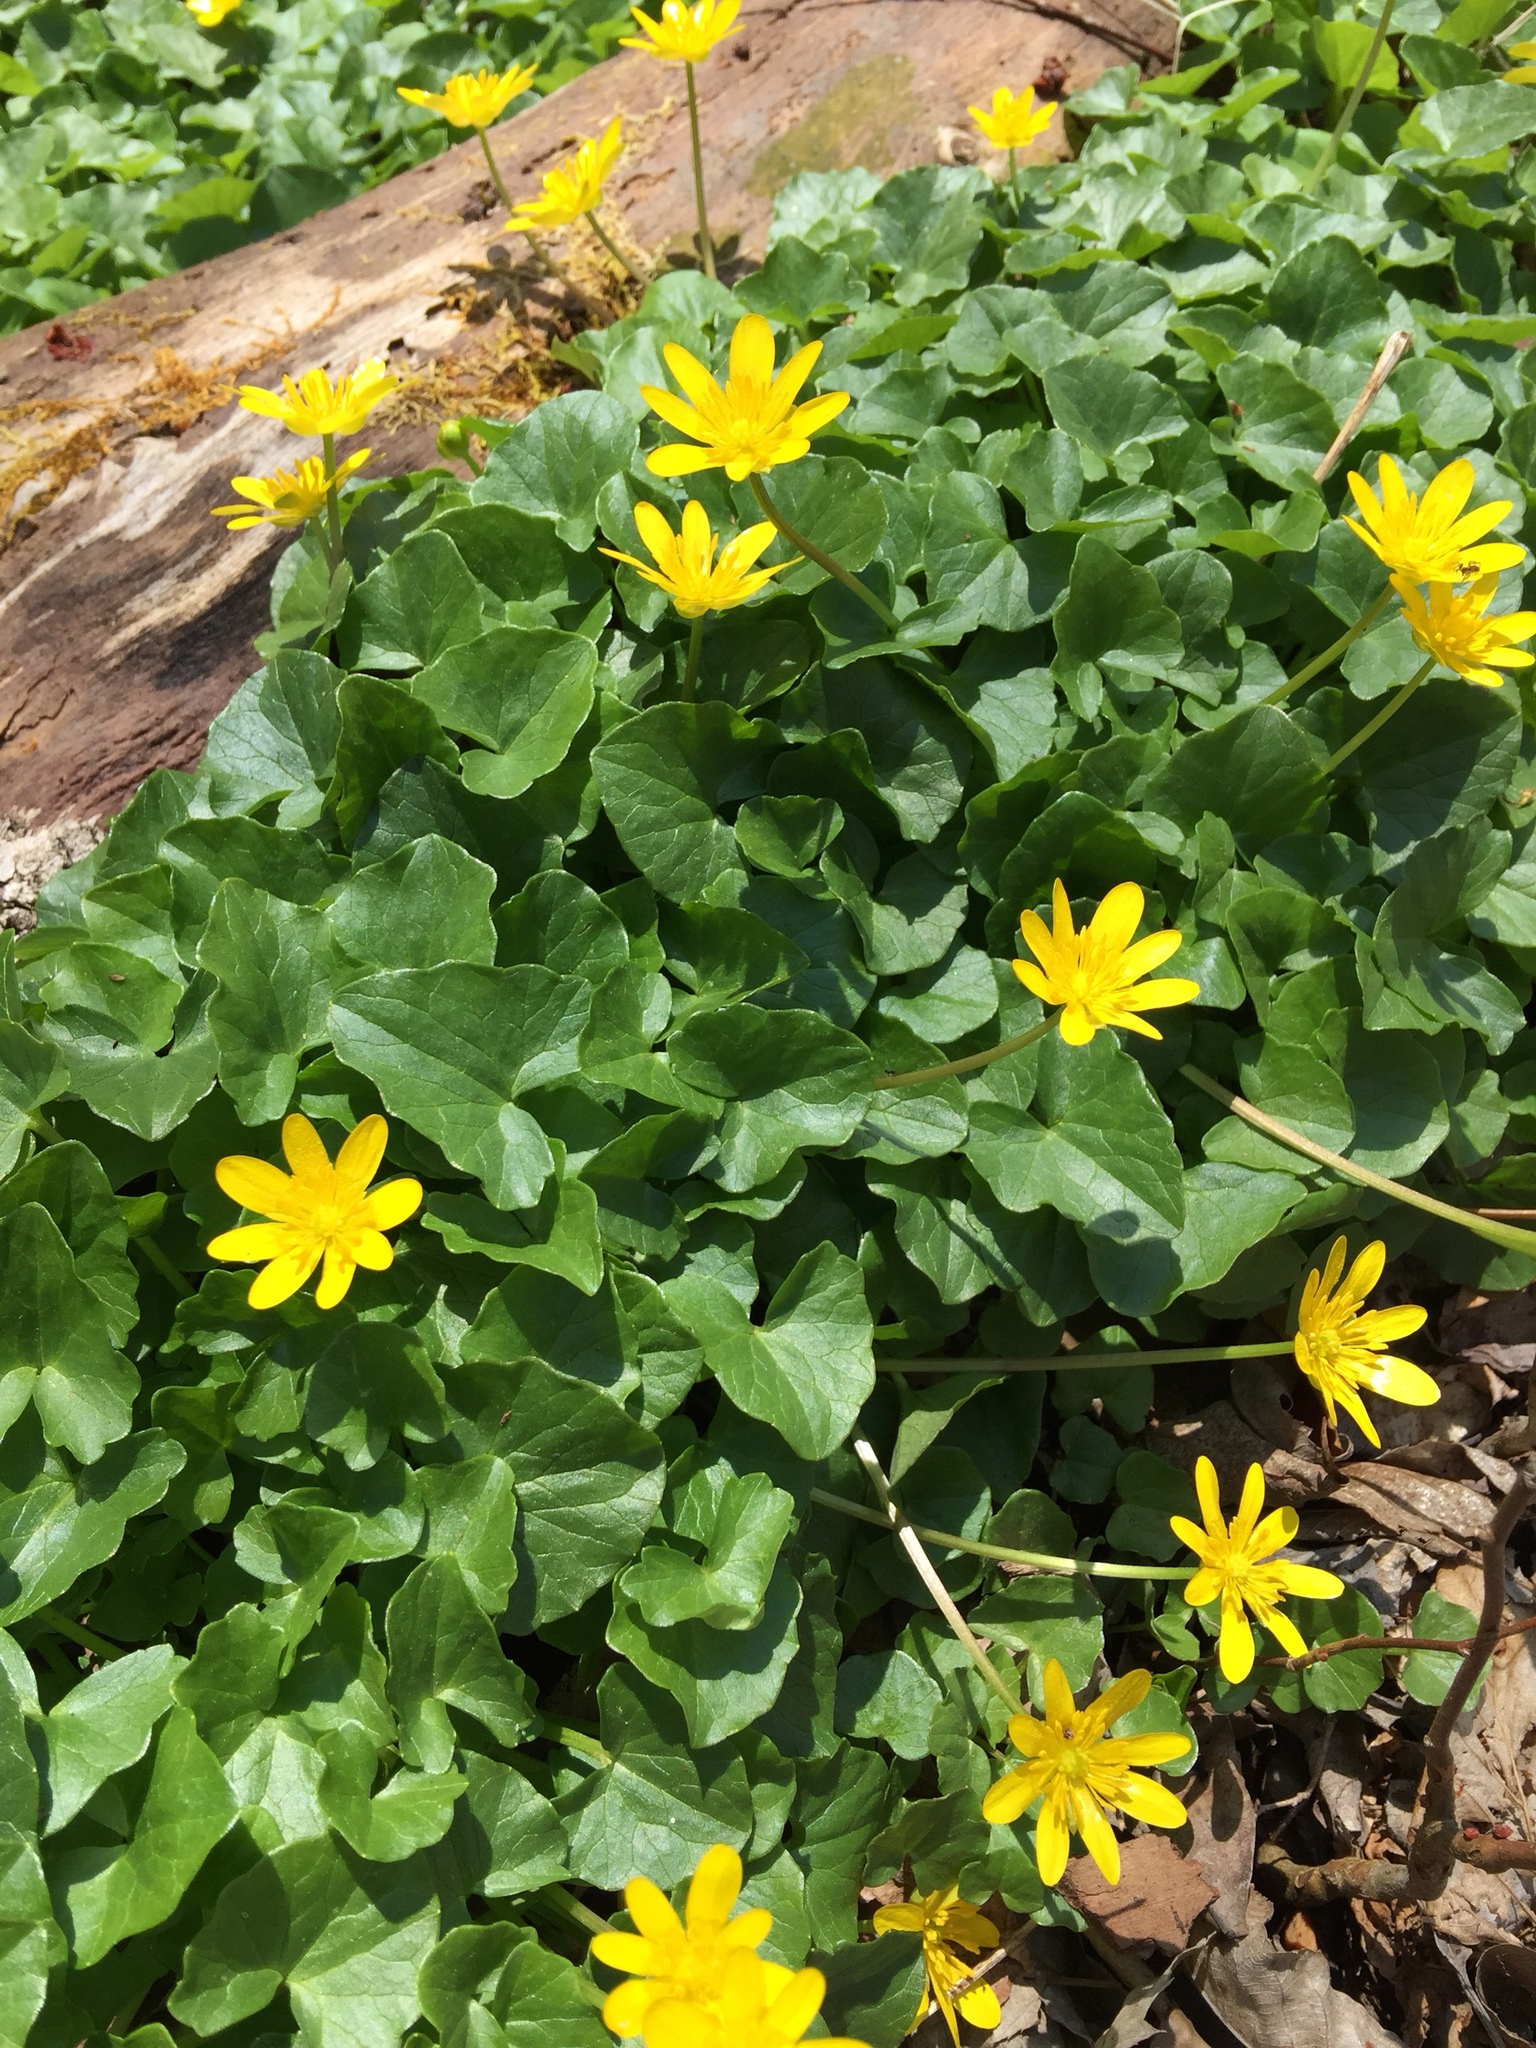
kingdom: Plantae
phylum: Tracheophyta
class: Magnoliopsida
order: Ranunculales
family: Ranunculaceae
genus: Ficaria
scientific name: Ficaria verna
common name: Lesser celandine
